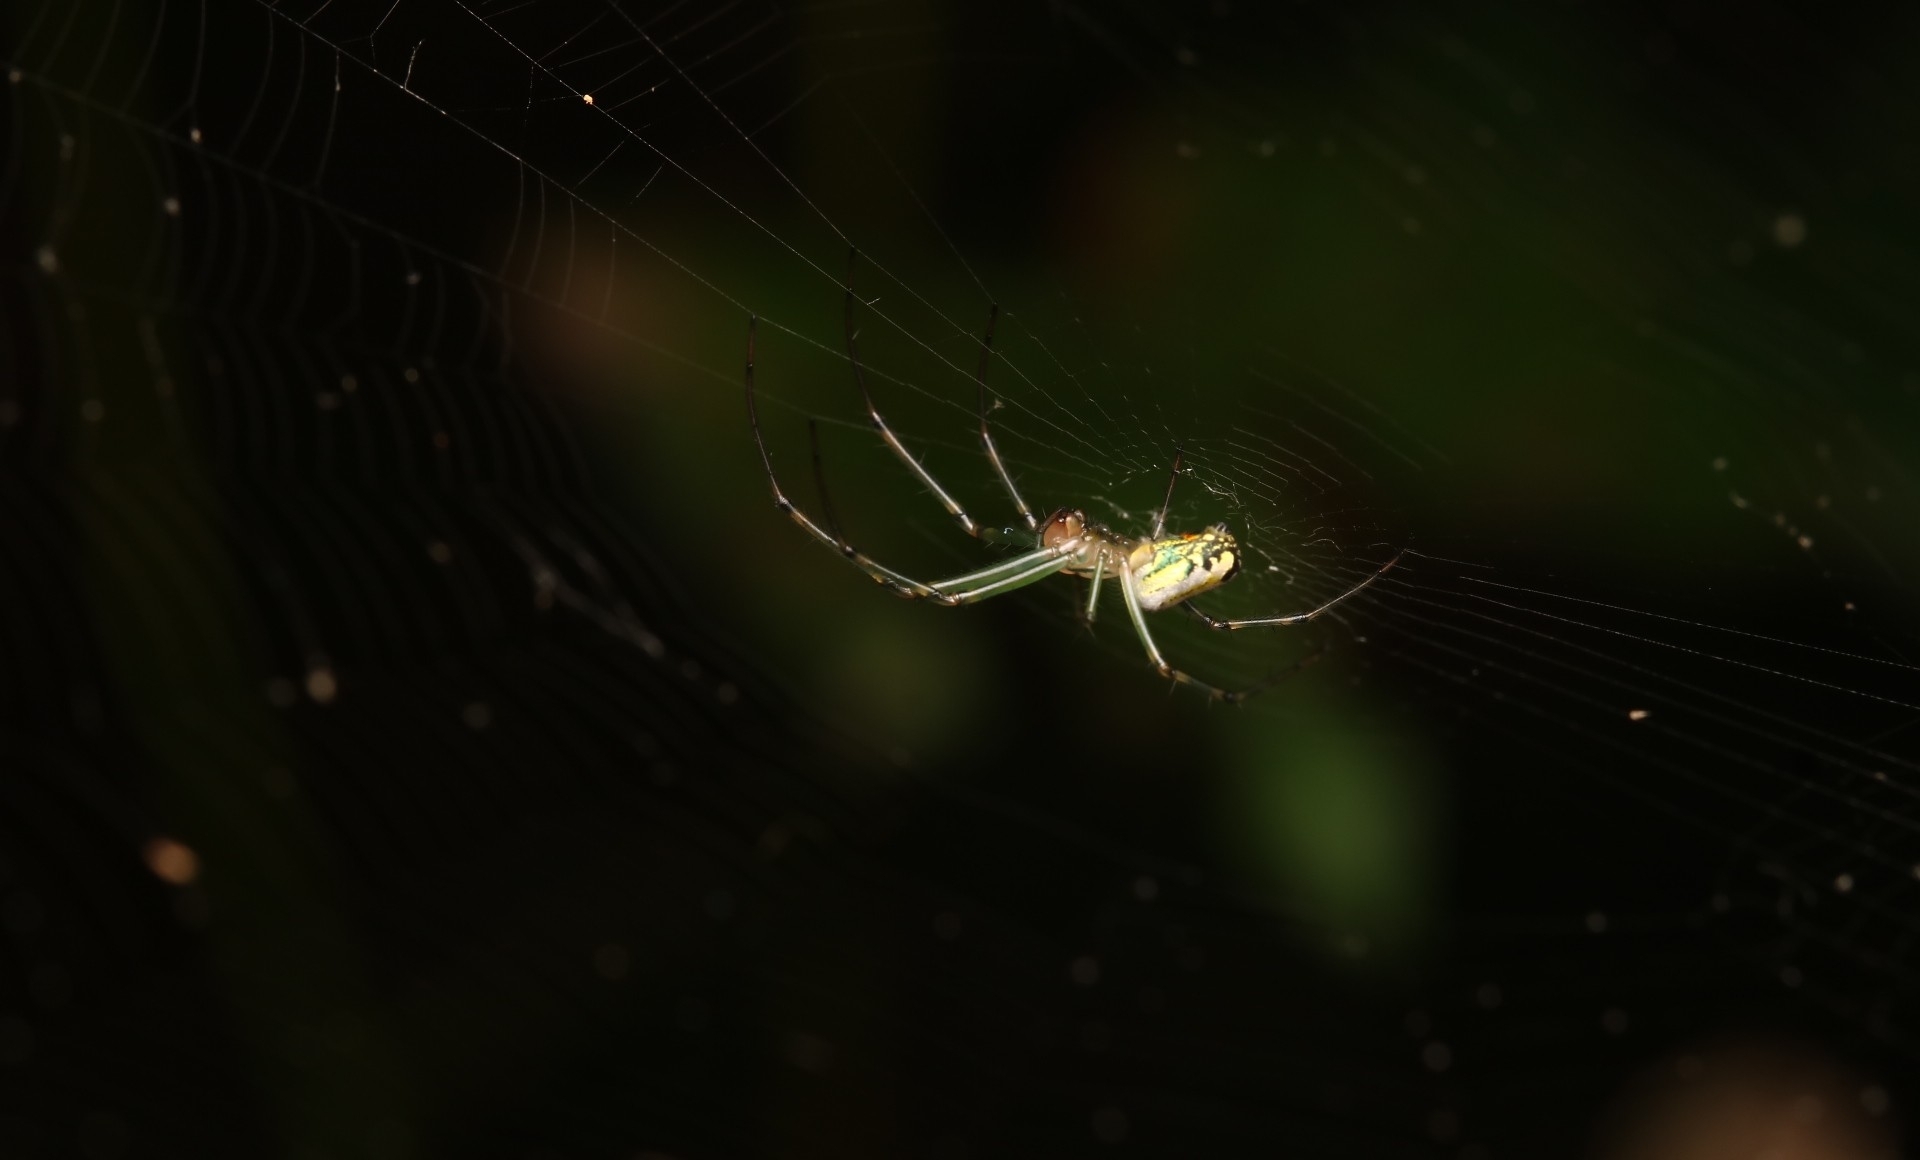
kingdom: Animalia
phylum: Arthropoda
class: Arachnida
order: Araneae
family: Tetragnathidae
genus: Leucauge
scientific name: Leucauge venusta
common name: Longjawed orb weavers
